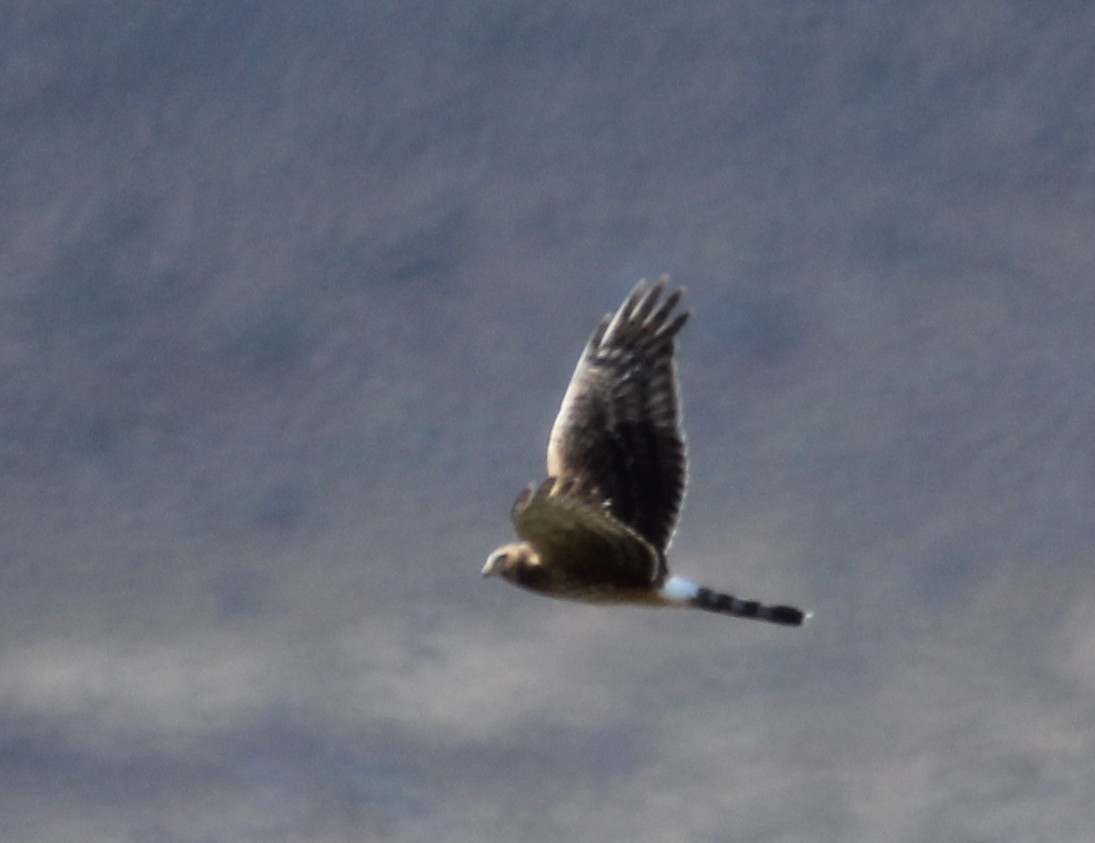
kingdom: Animalia
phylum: Chordata
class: Aves
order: Accipitriformes
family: Accipitridae
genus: Circus
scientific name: Circus cinereus
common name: Cinereous harrier
